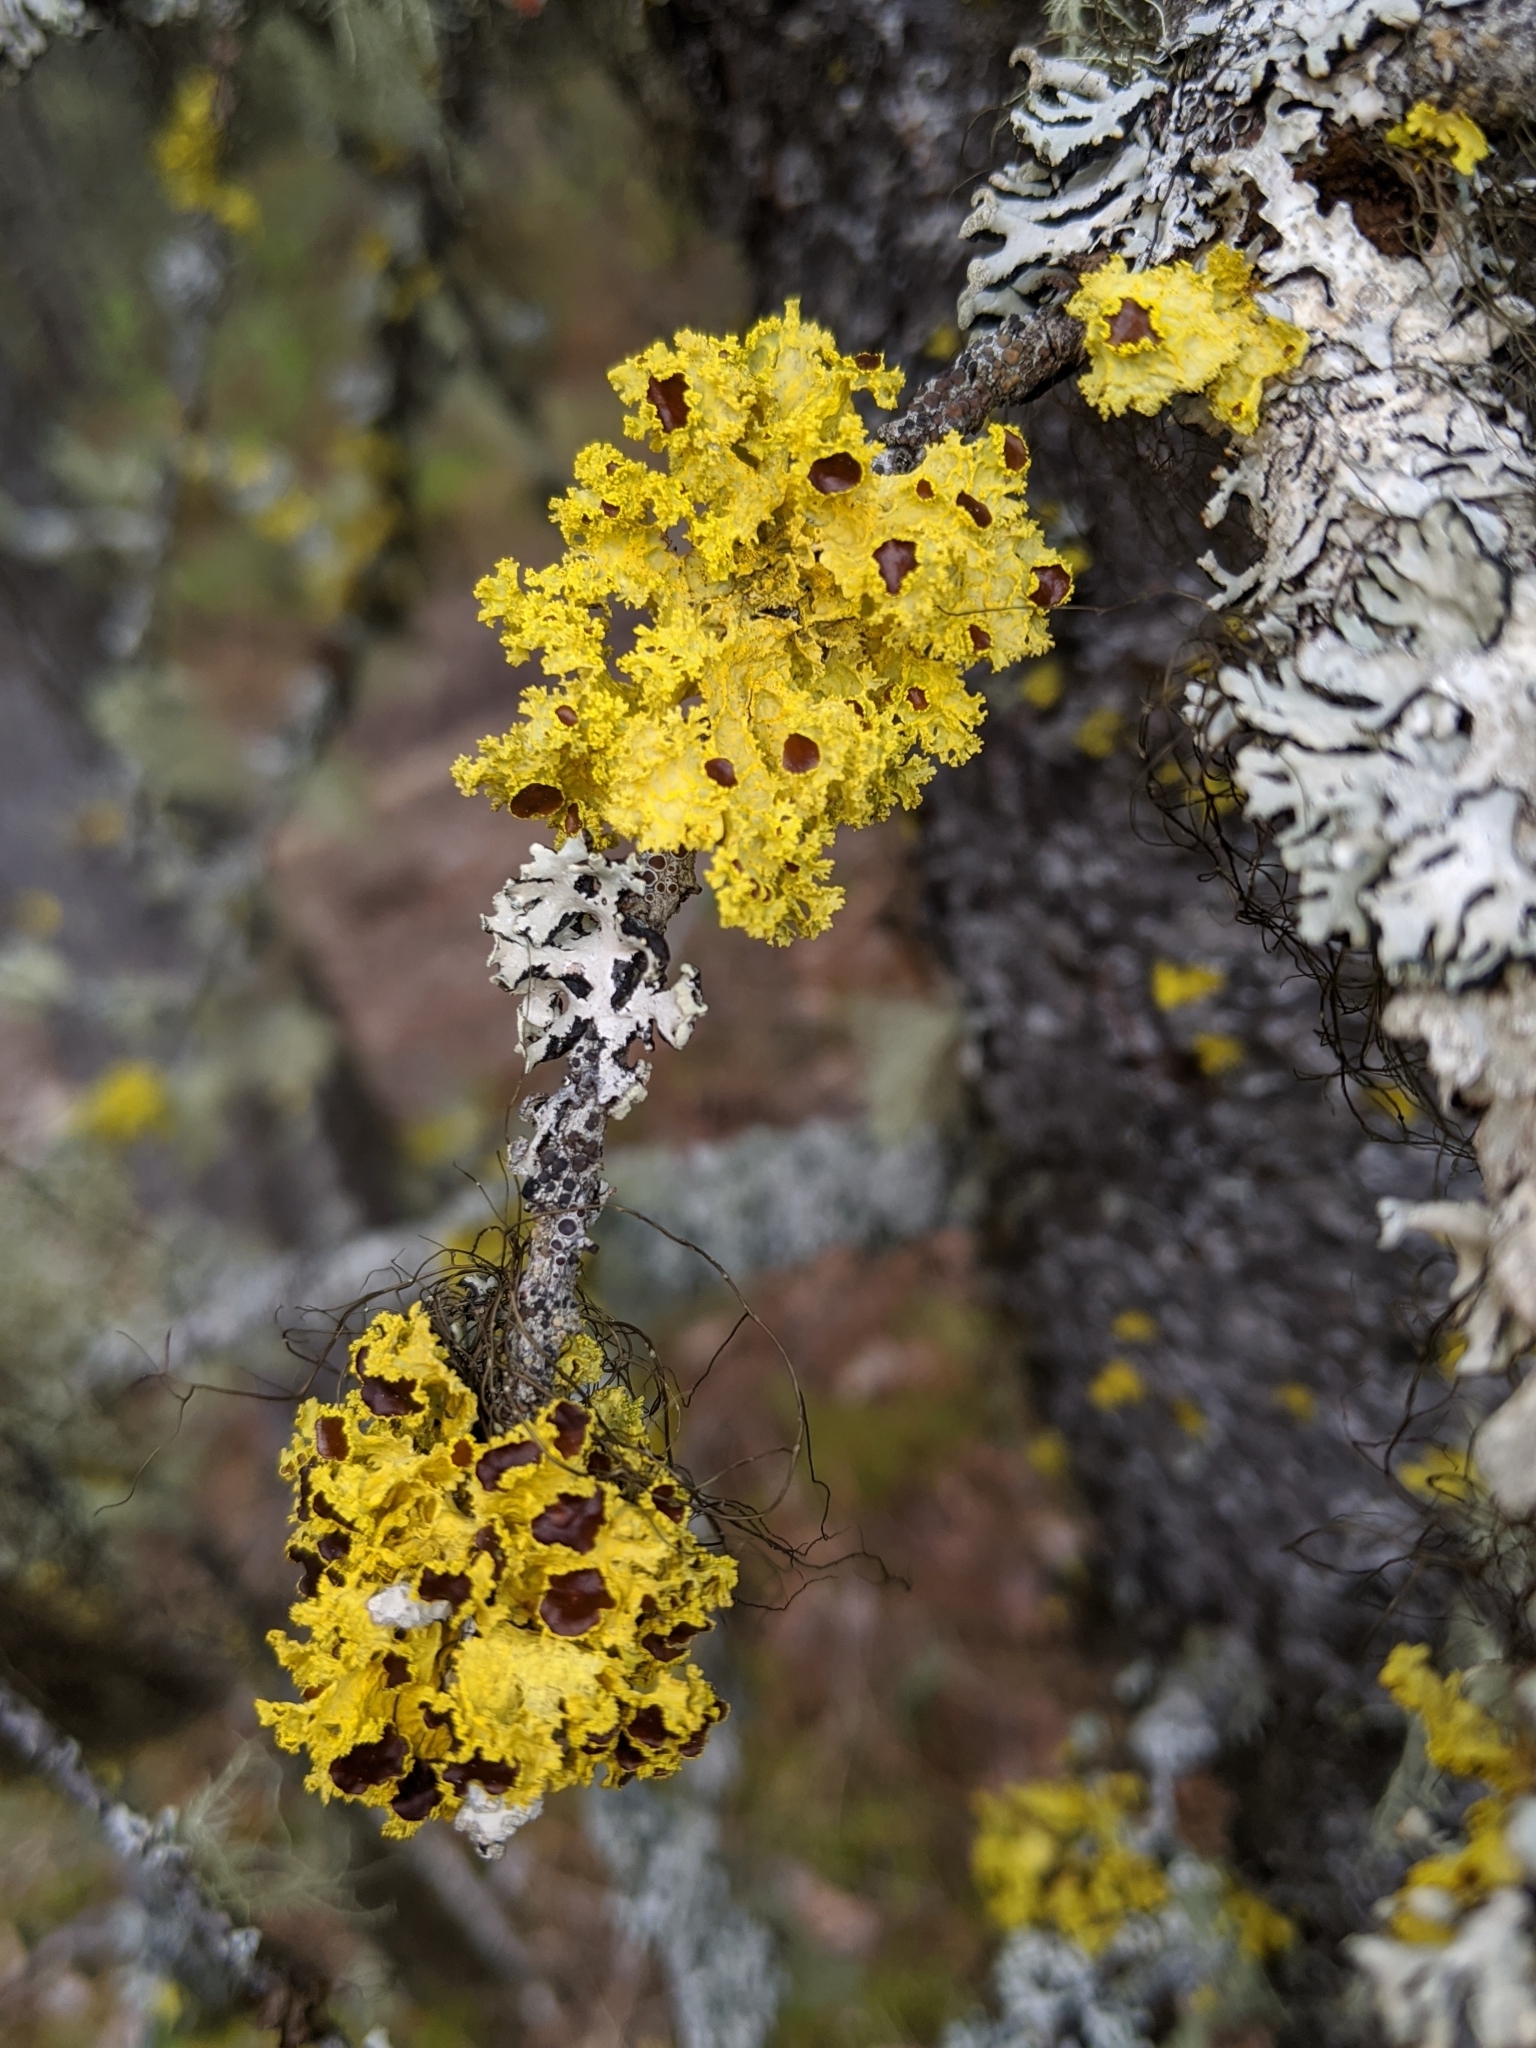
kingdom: Fungi
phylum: Ascomycota
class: Lecanoromycetes
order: Lecanorales
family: Parmeliaceae
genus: Vulpicida
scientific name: Vulpicida canadensis
